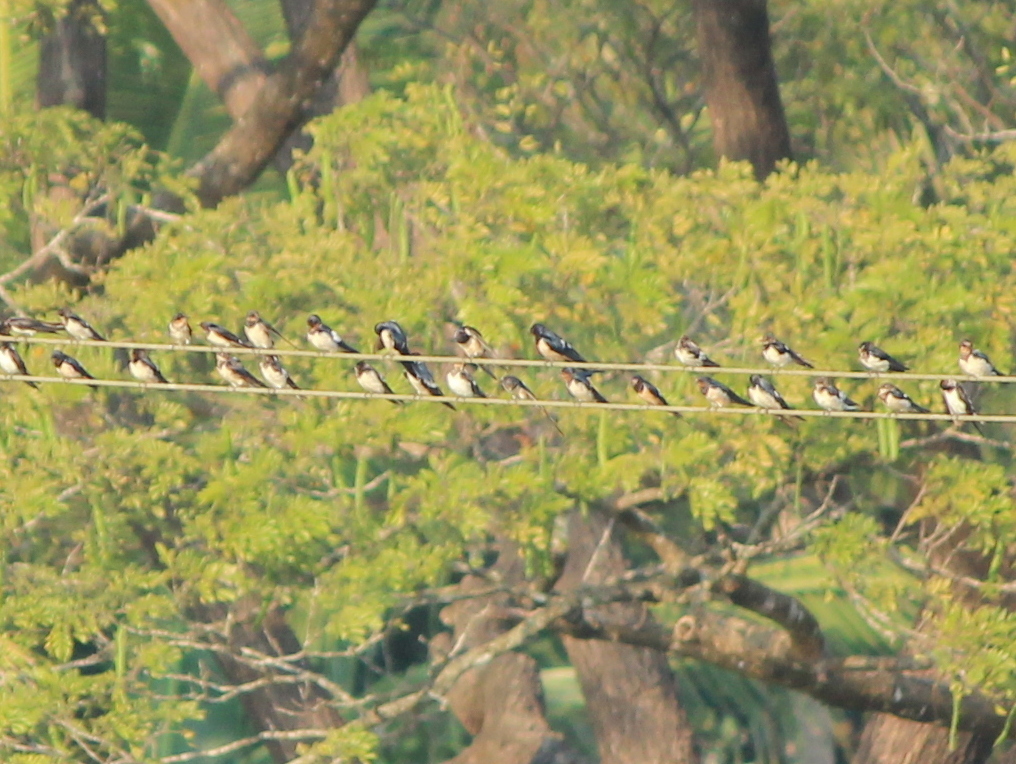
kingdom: Animalia
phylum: Chordata
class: Aves
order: Passeriformes
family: Hirundinidae
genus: Hirundo
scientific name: Hirundo rustica
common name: Barn swallow
